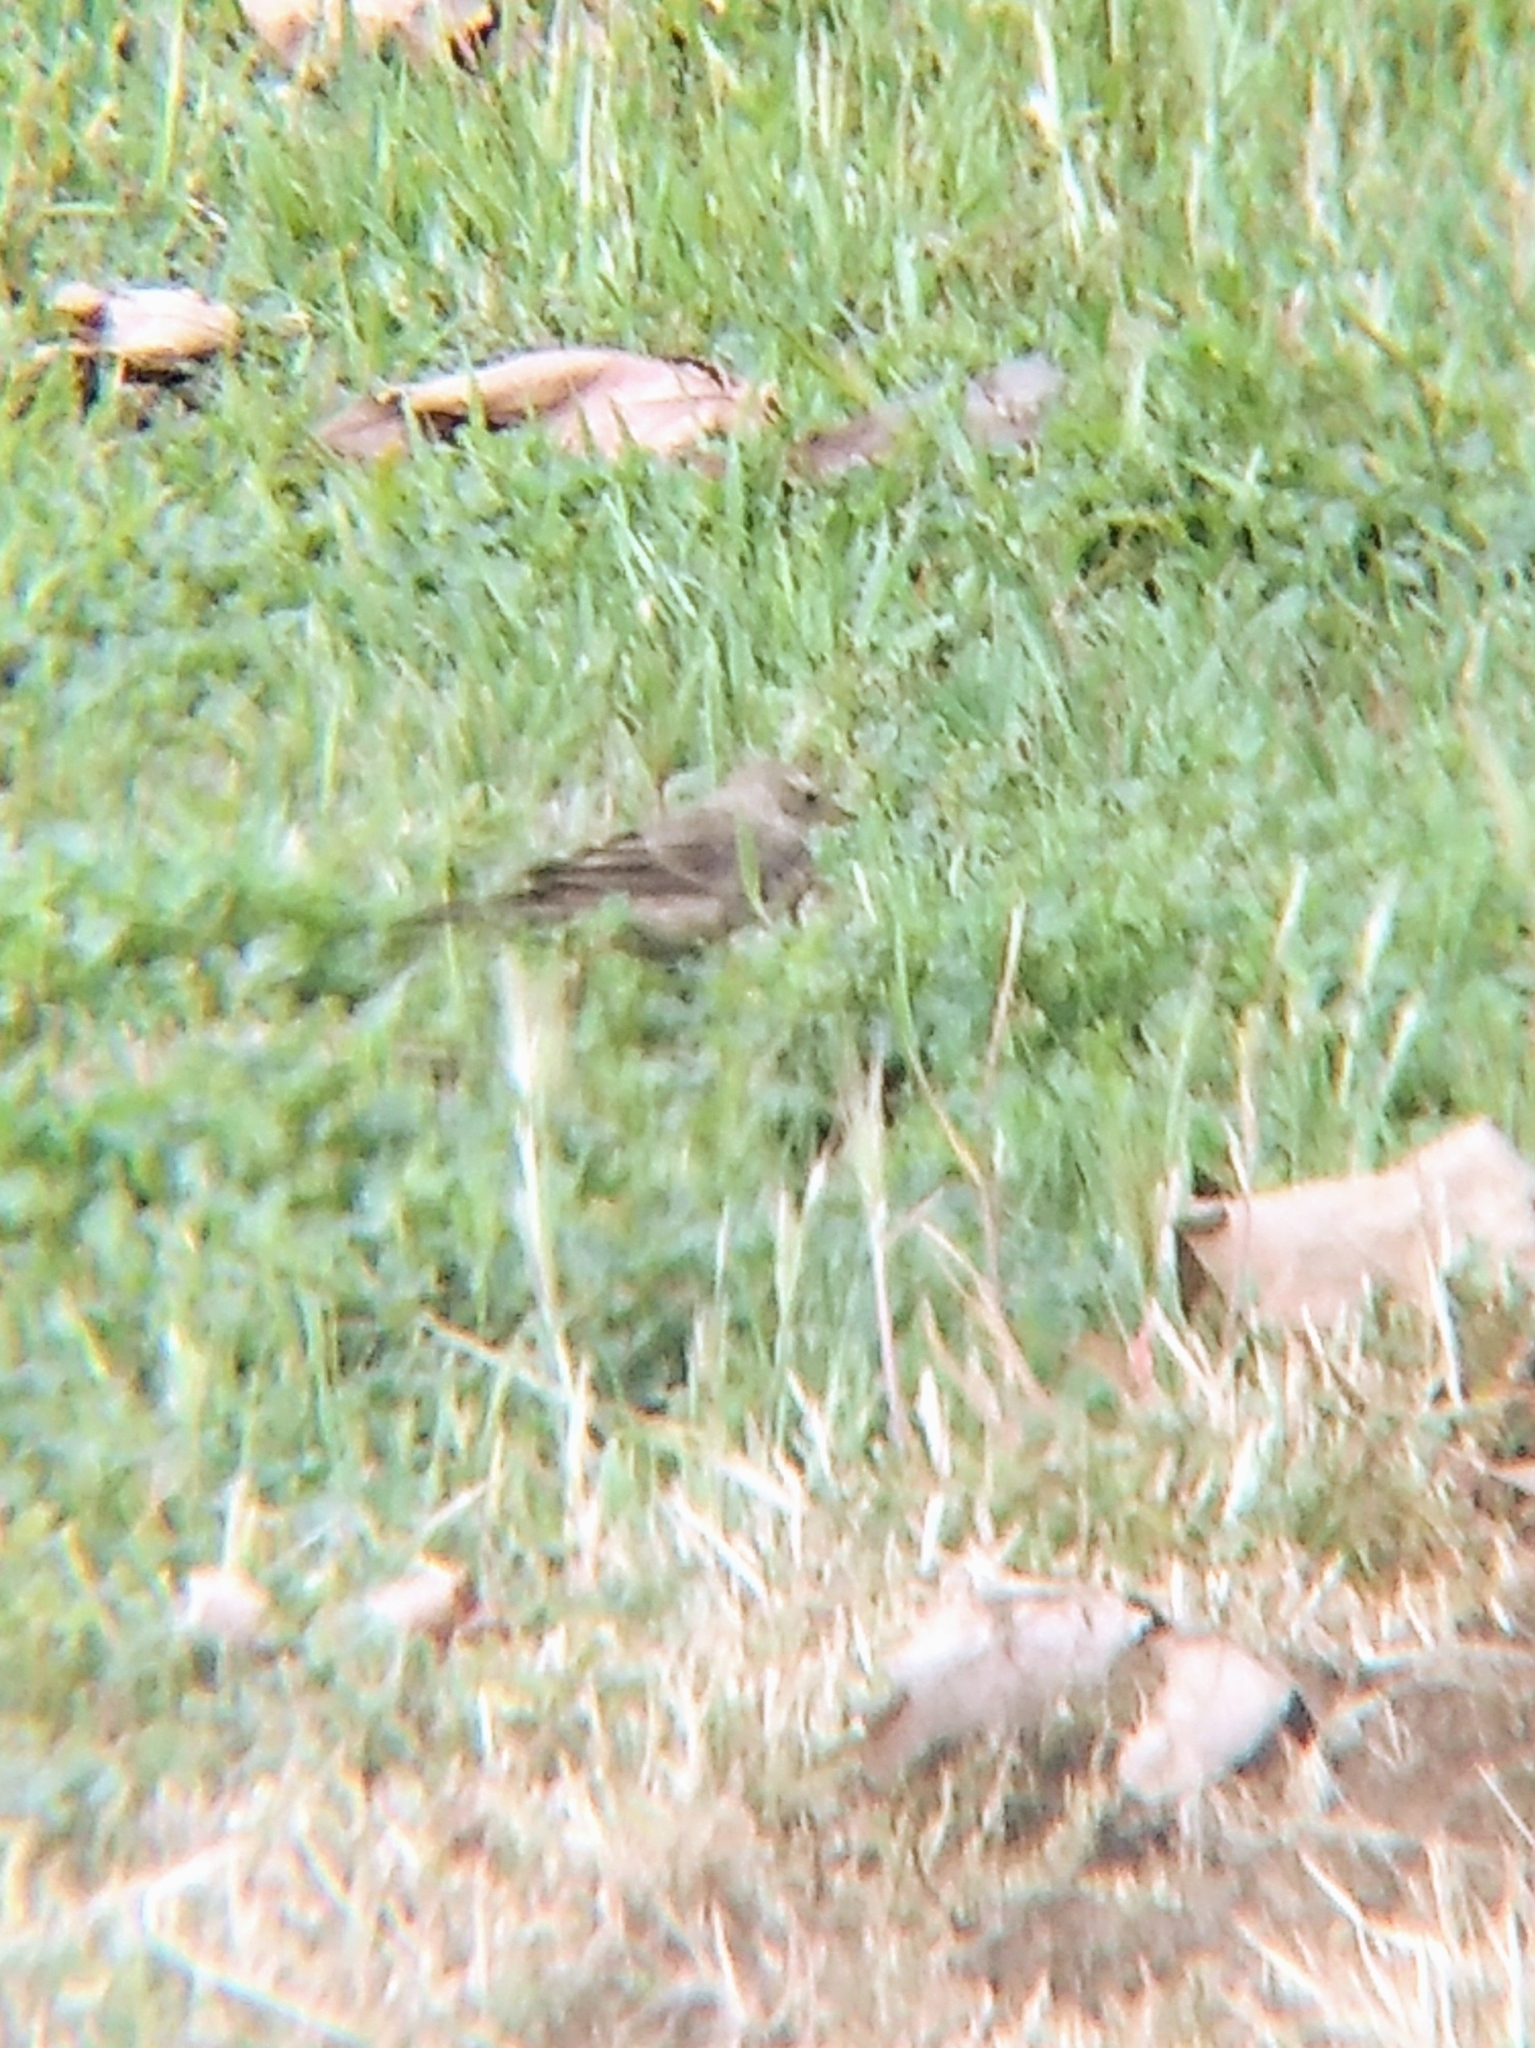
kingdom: Animalia
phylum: Chordata
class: Aves
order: Passeriformes
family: Motacillidae
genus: Anthus
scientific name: Anthus rubescens
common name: Buff-bellied pipit
